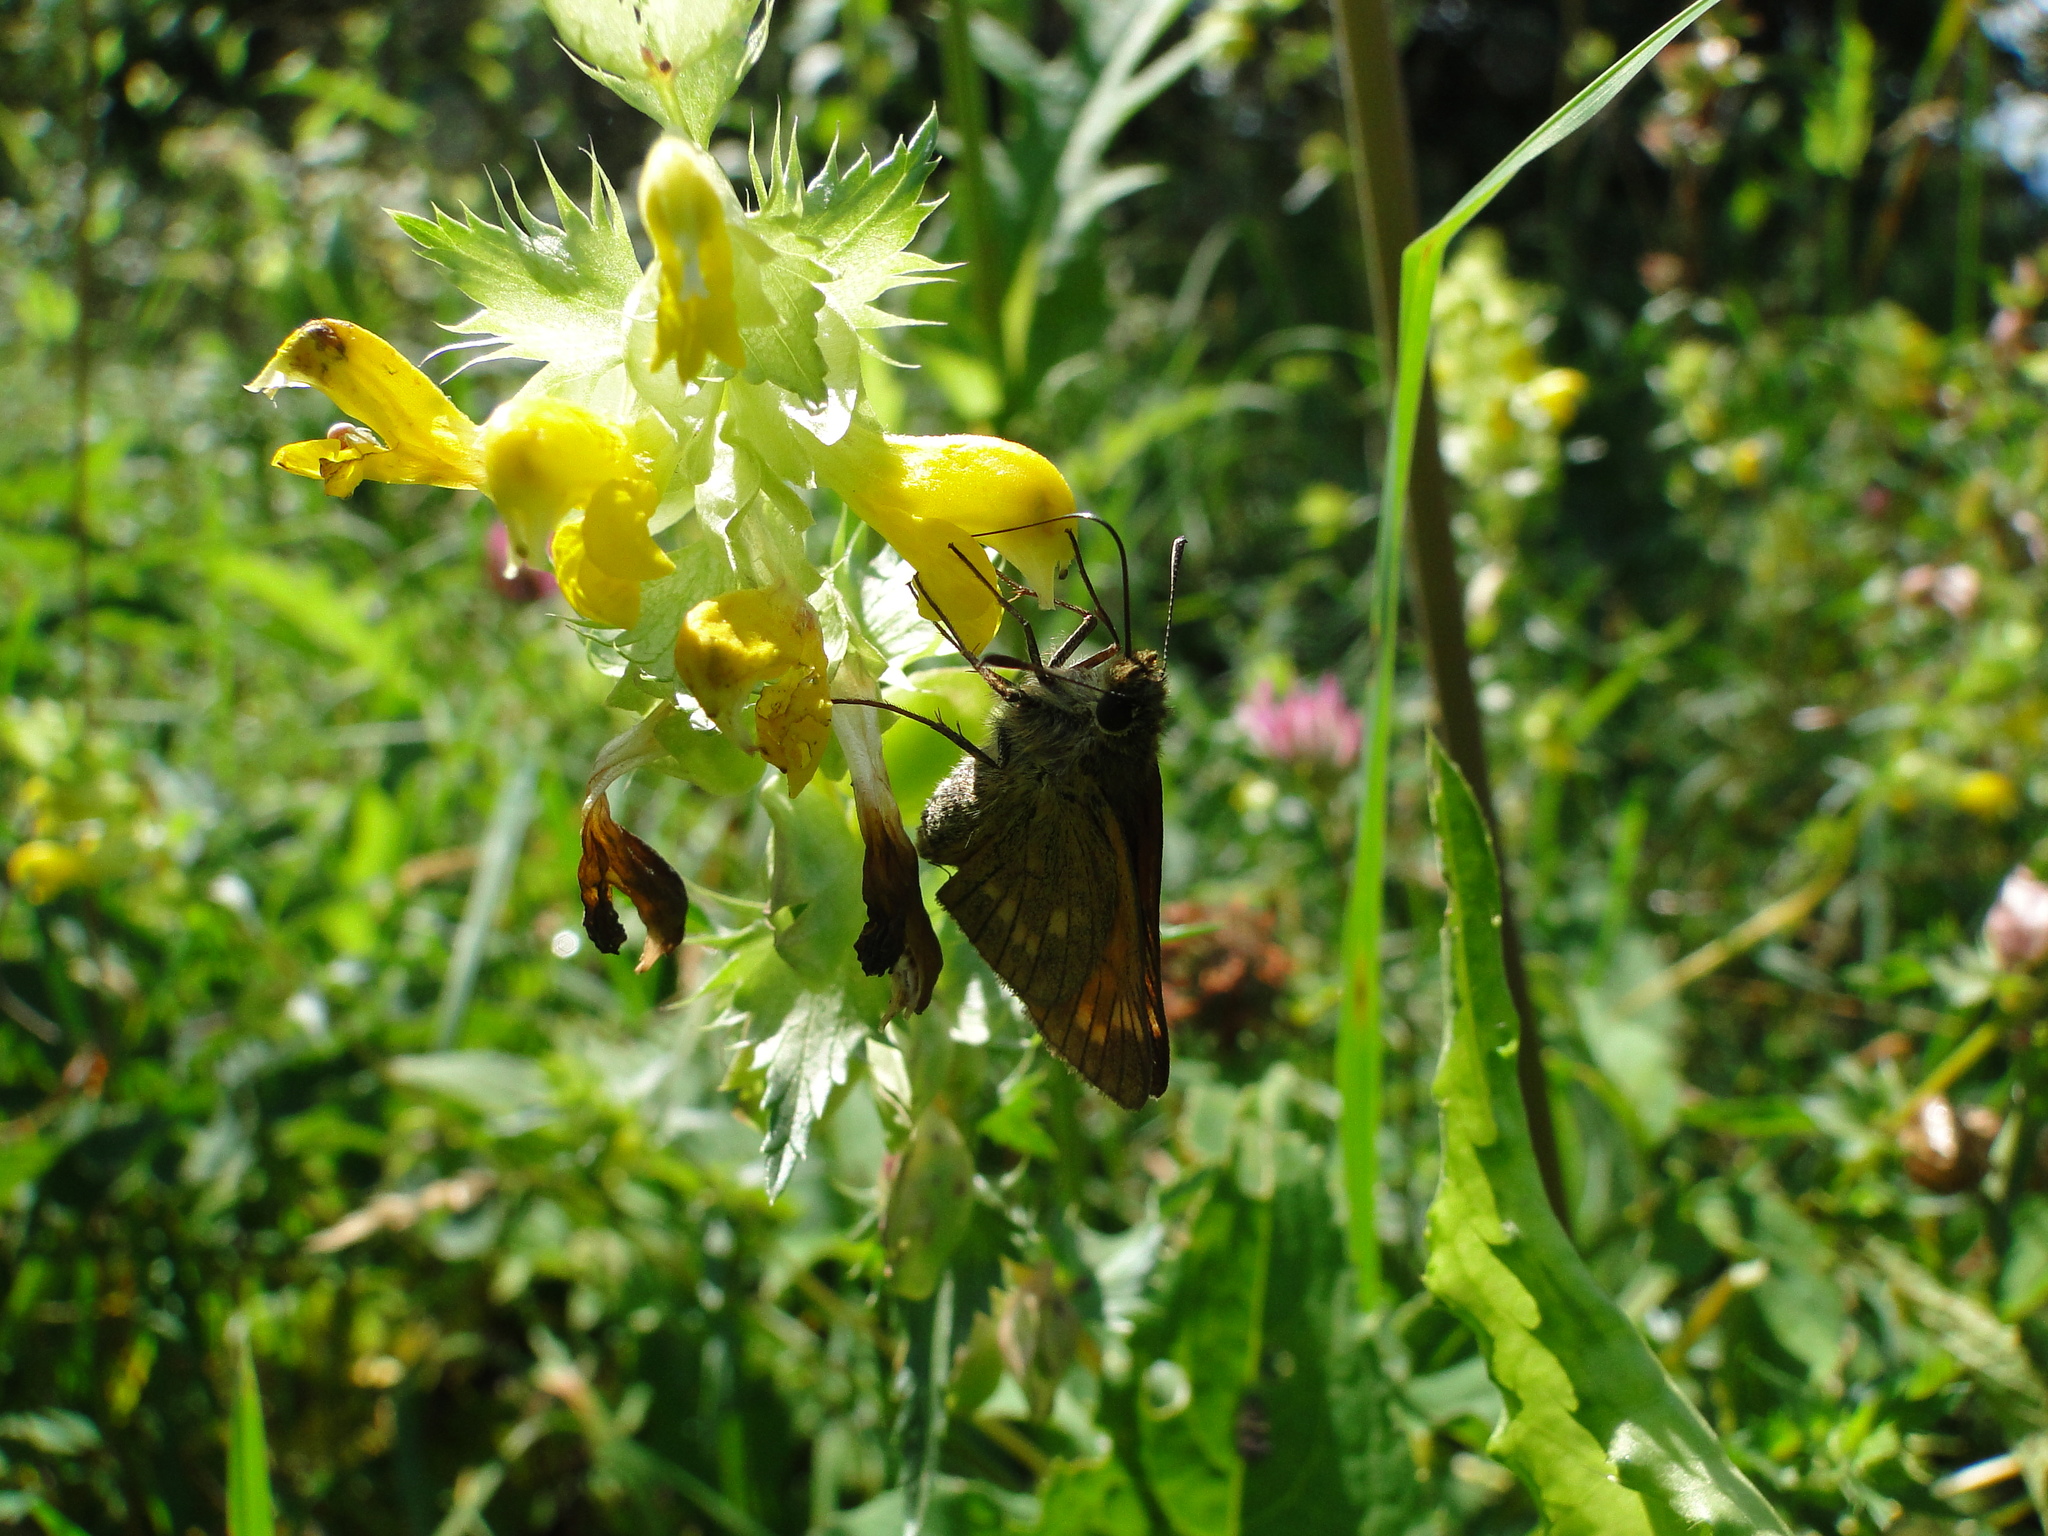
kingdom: Animalia
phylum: Arthropoda
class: Insecta
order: Lepidoptera
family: Hesperiidae
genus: Ochlodes
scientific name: Ochlodes venata
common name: Large skipper
